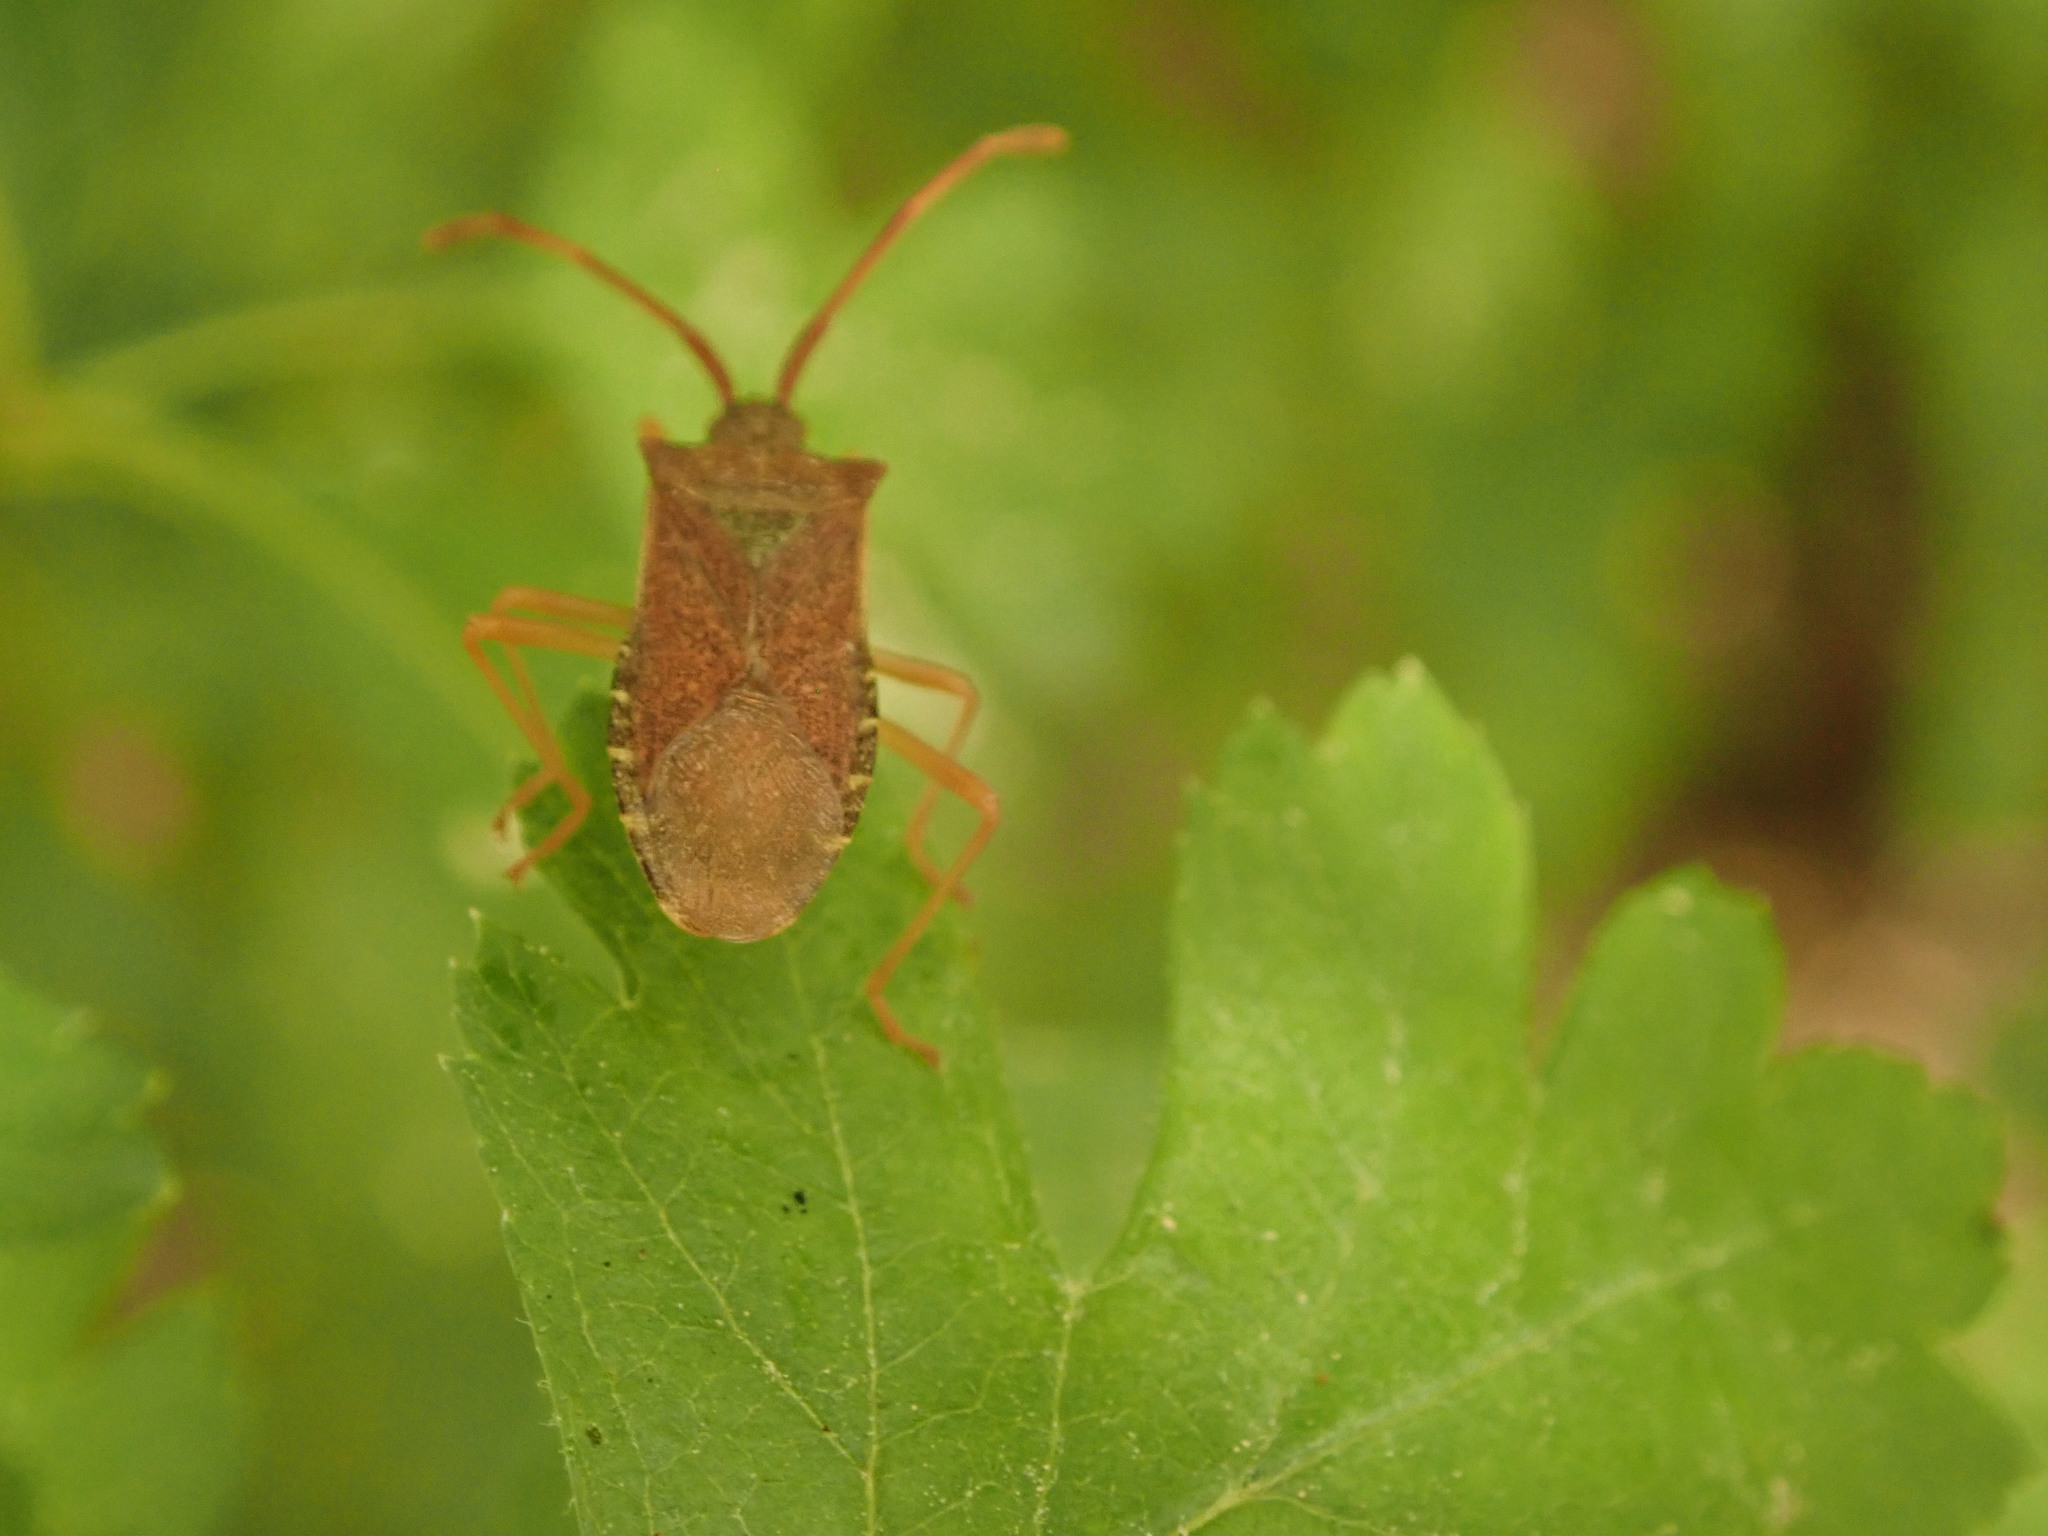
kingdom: Animalia
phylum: Arthropoda
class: Insecta
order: Hemiptera
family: Coreidae
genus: Gonocerus
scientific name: Gonocerus acuteangulatus
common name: Box bug
